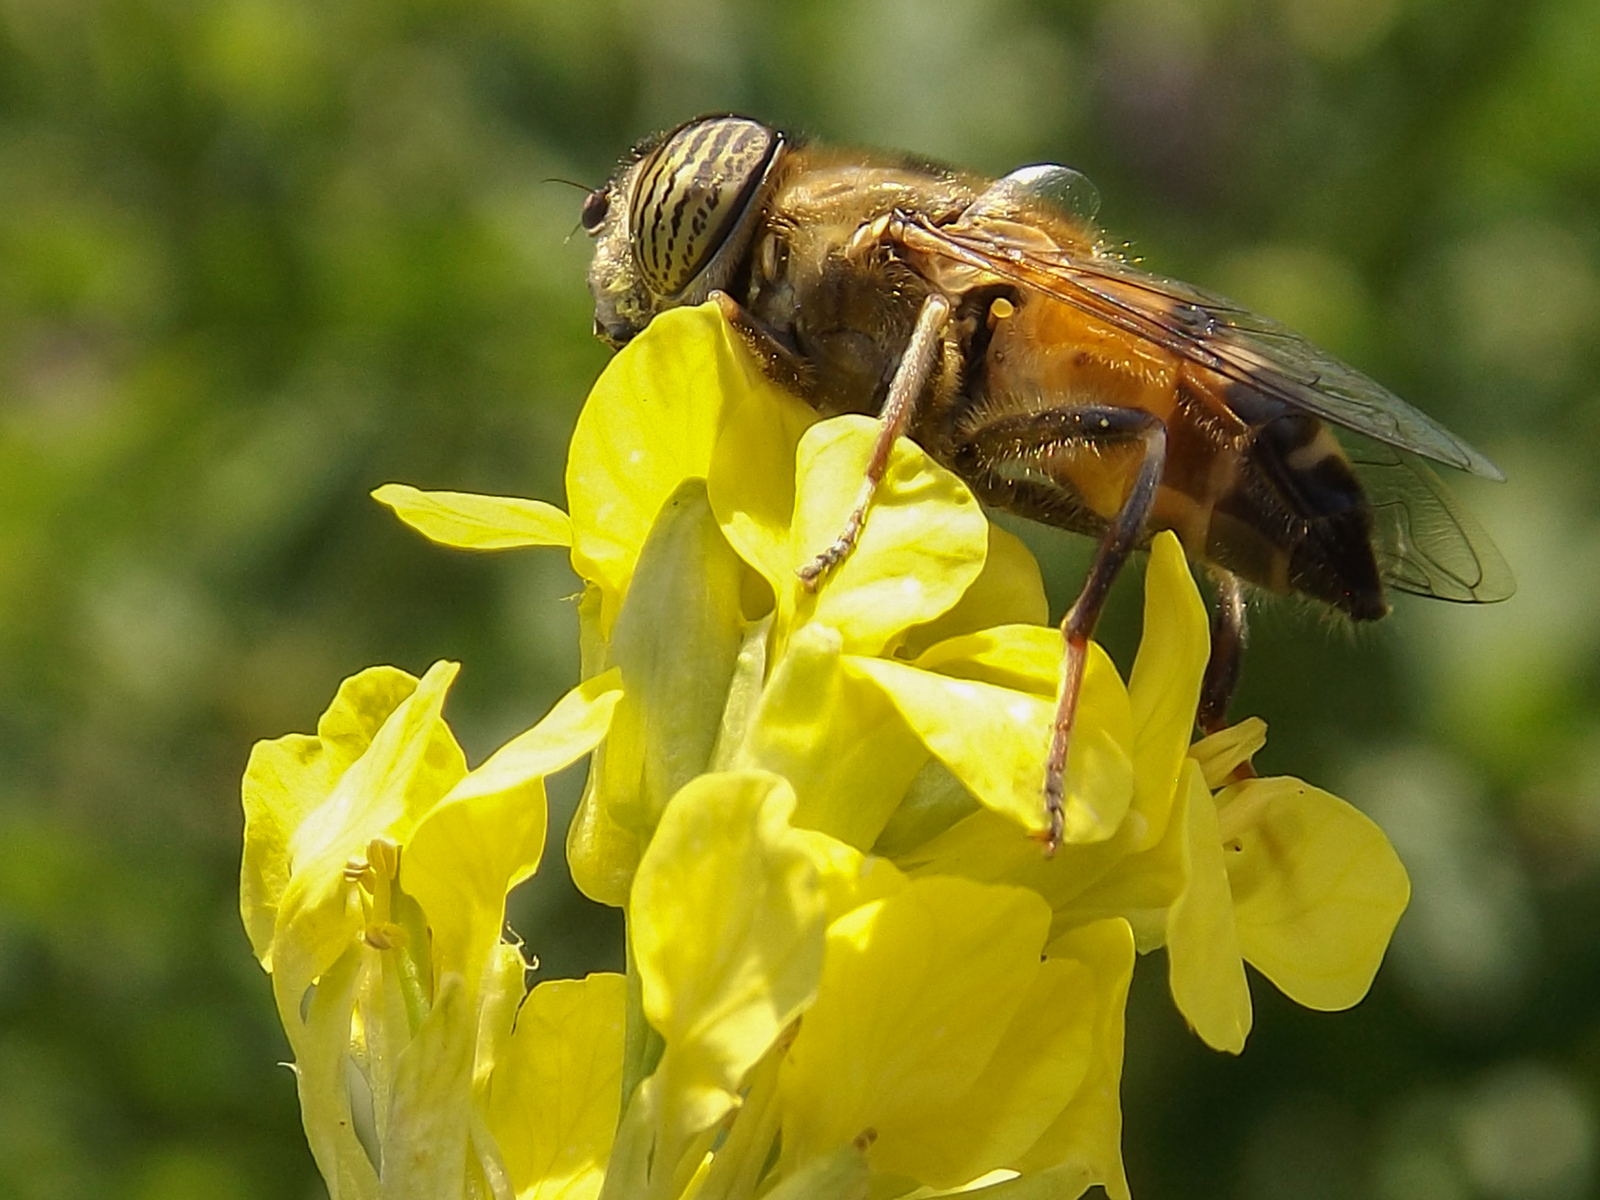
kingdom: Animalia
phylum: Arthropoda
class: Insecta
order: Diptera
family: Syrphidae
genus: Eristalinus
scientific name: Eristalinus taeniops
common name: Syrphid fly
